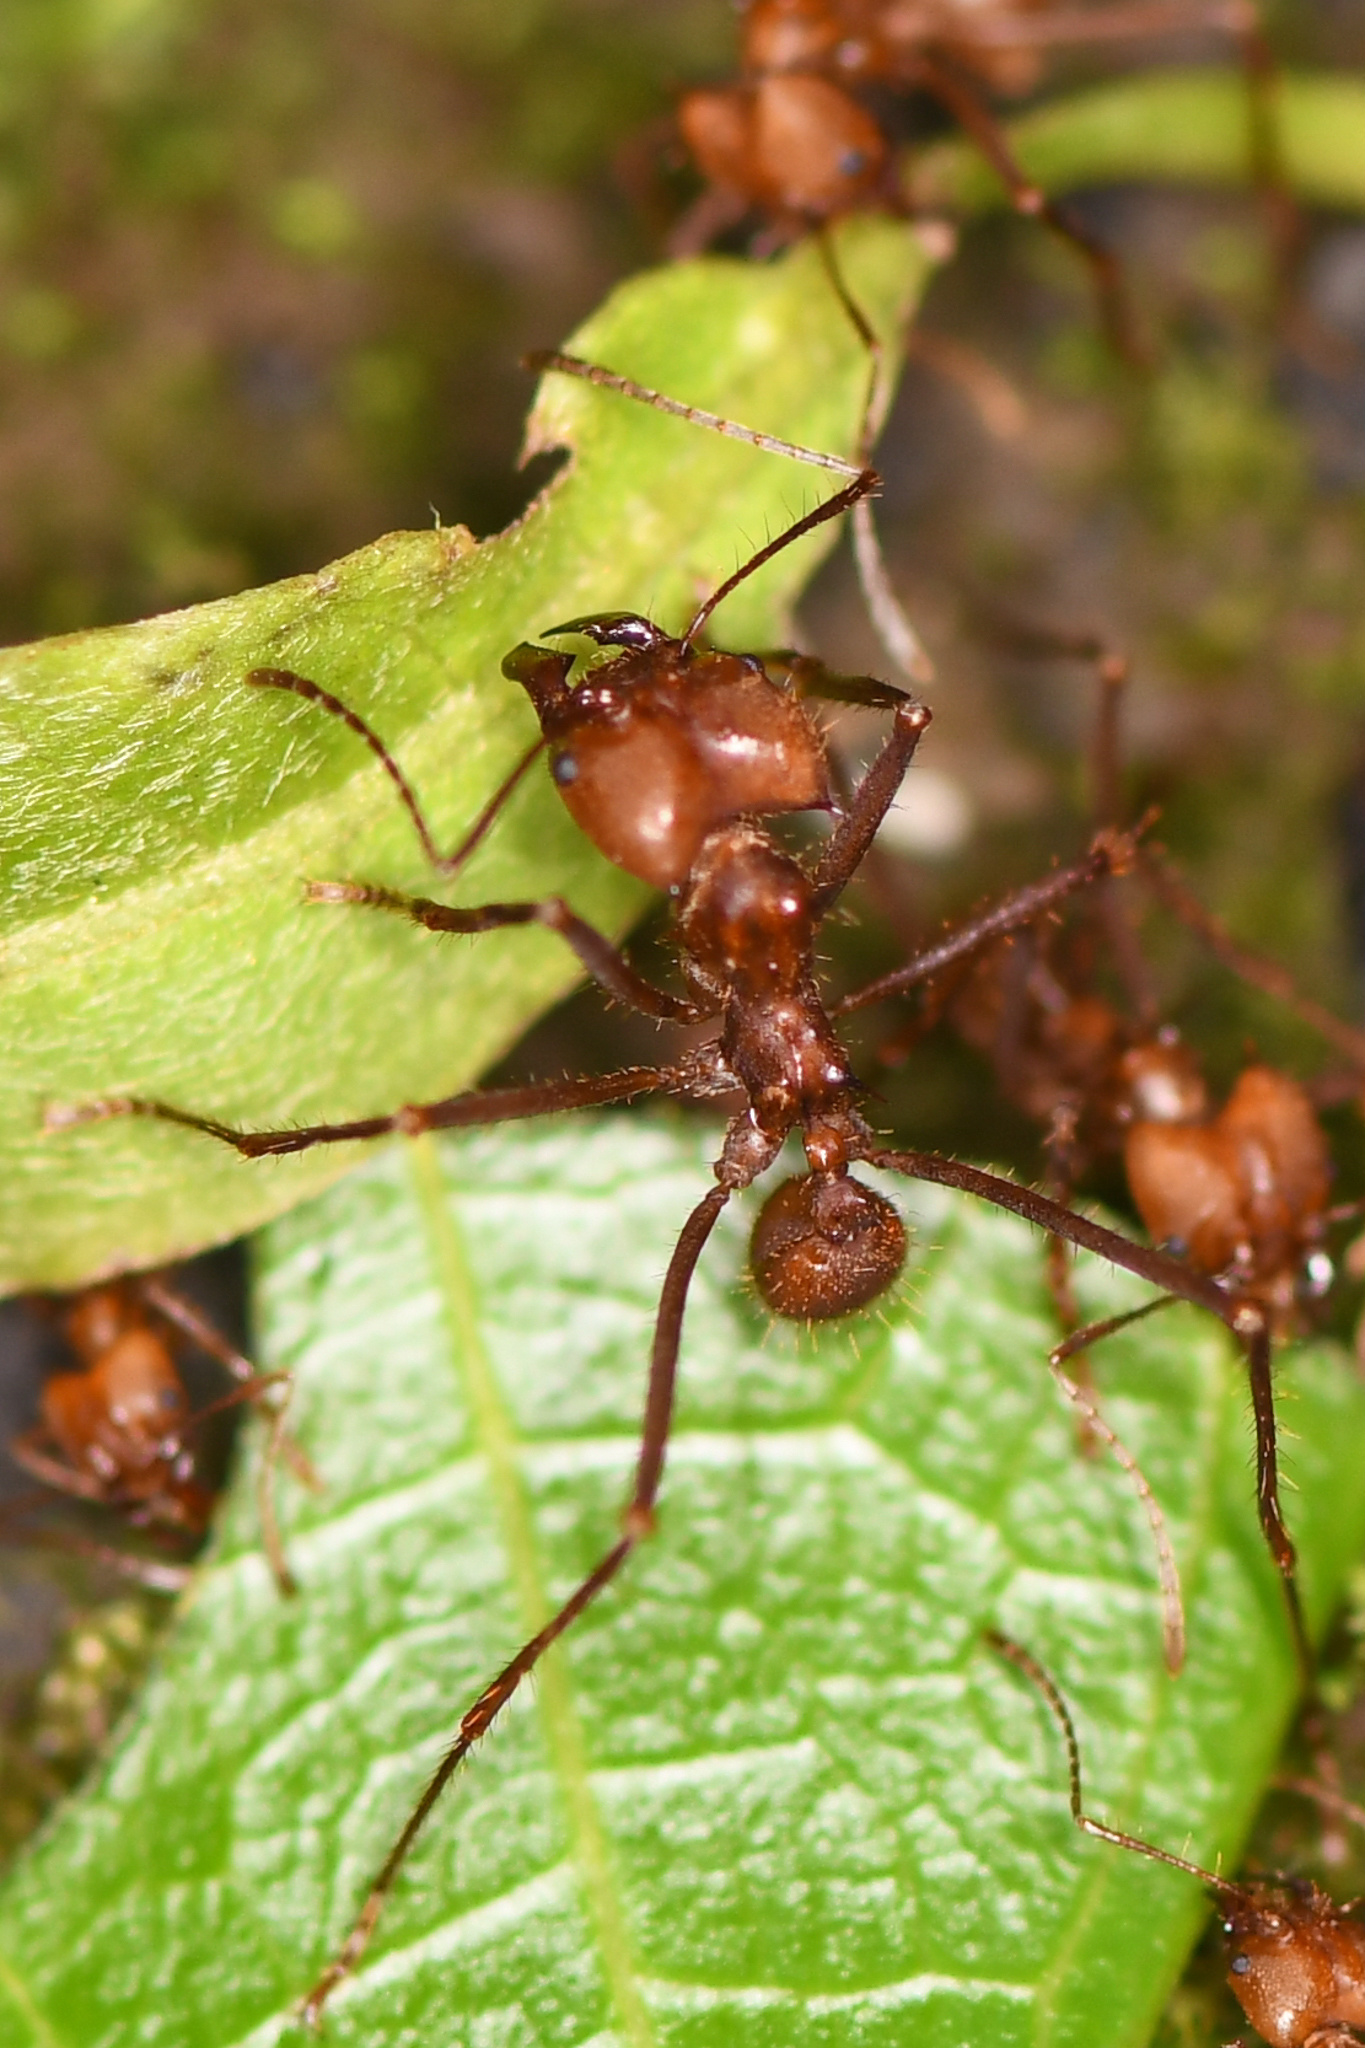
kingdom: Animalia
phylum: Arthropoda
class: Insecta
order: Hymenoptera
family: Formicidae
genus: Atta
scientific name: Atta cephalotes
